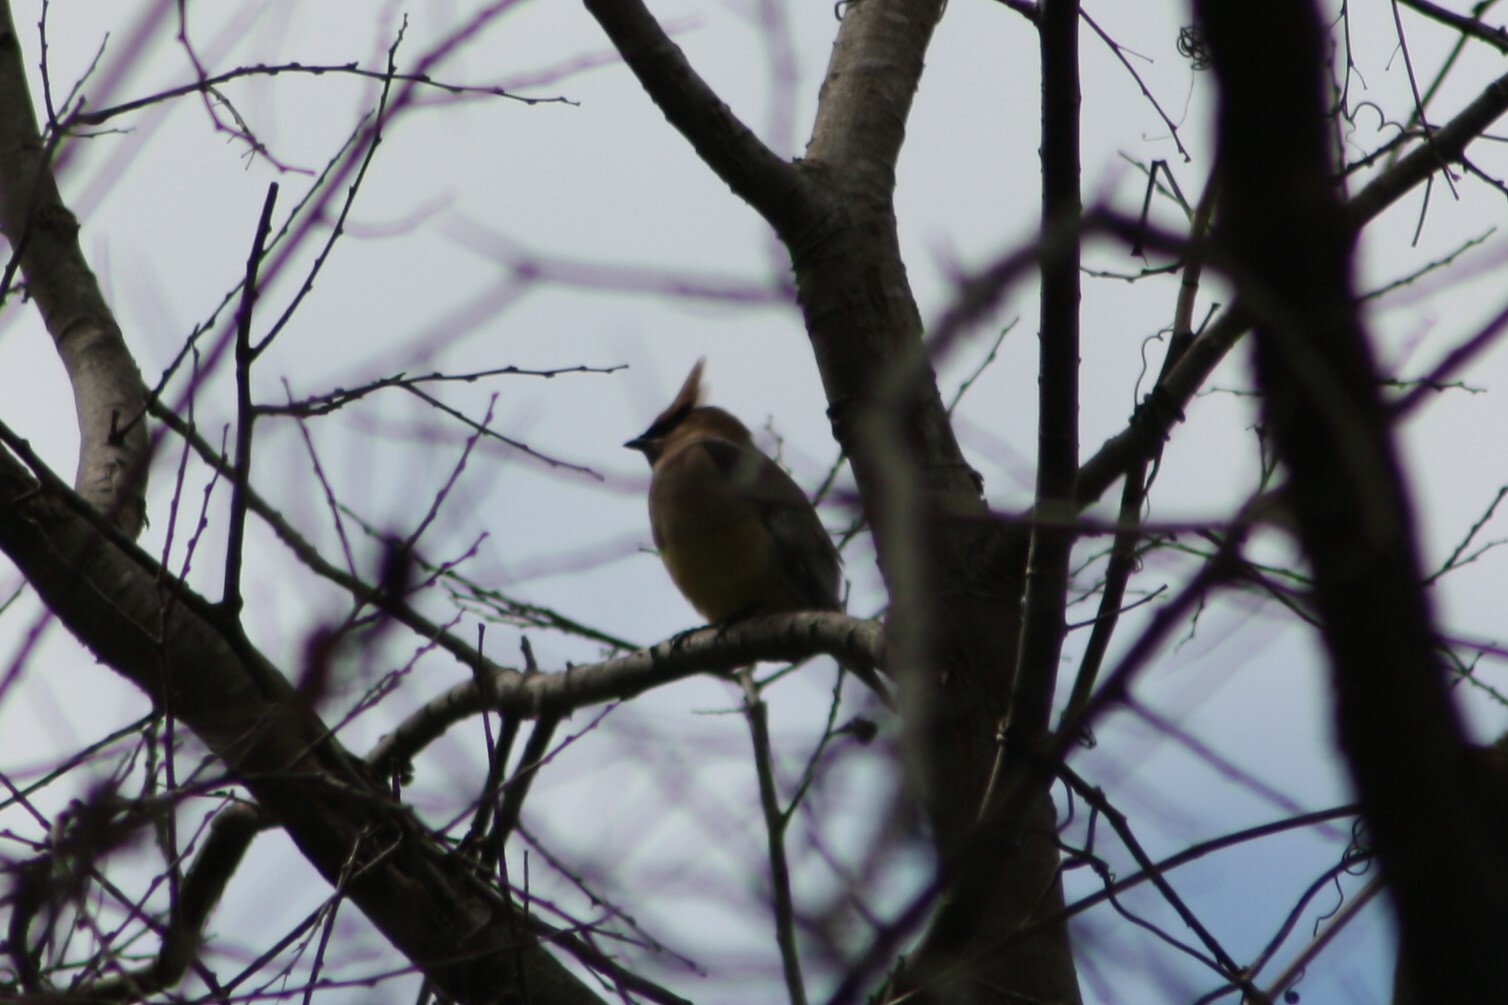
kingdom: Animalia
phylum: Chordata
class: Aves
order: Passeriformes
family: Bombycillidae
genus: Bombycilla
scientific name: Bombycilla cedrorum
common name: Cedar waxwing
